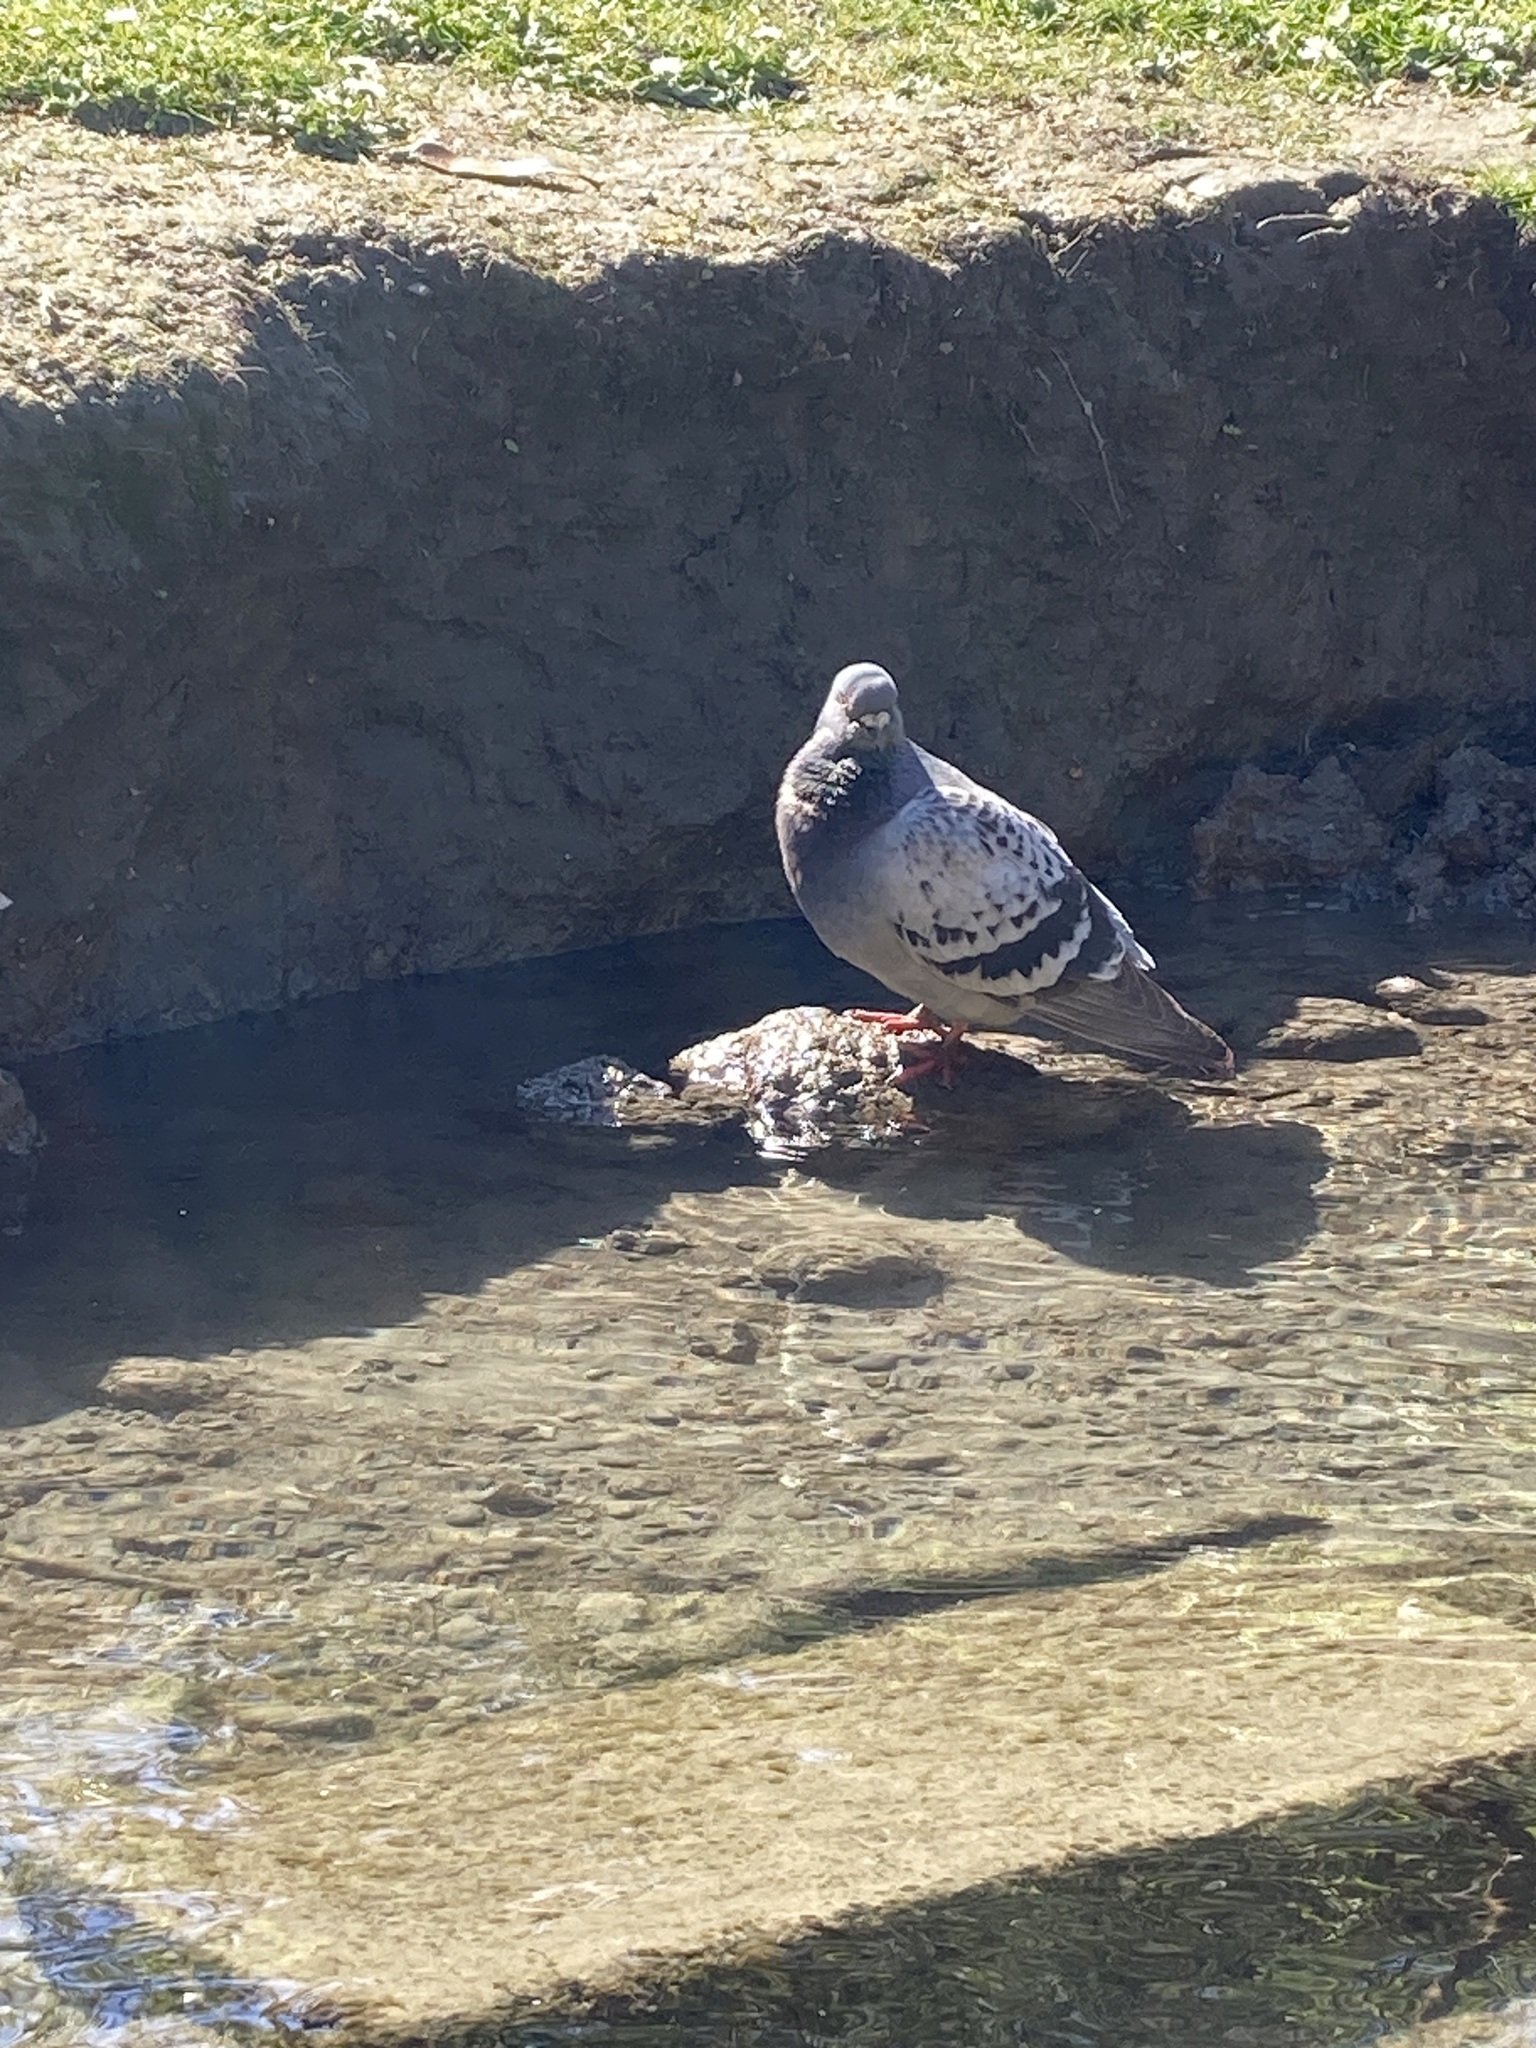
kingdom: Animalia
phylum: Chordata
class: Aves
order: Columbiformes
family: Columbidae
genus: Columba
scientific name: Columba livia
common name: Rock pigeon
